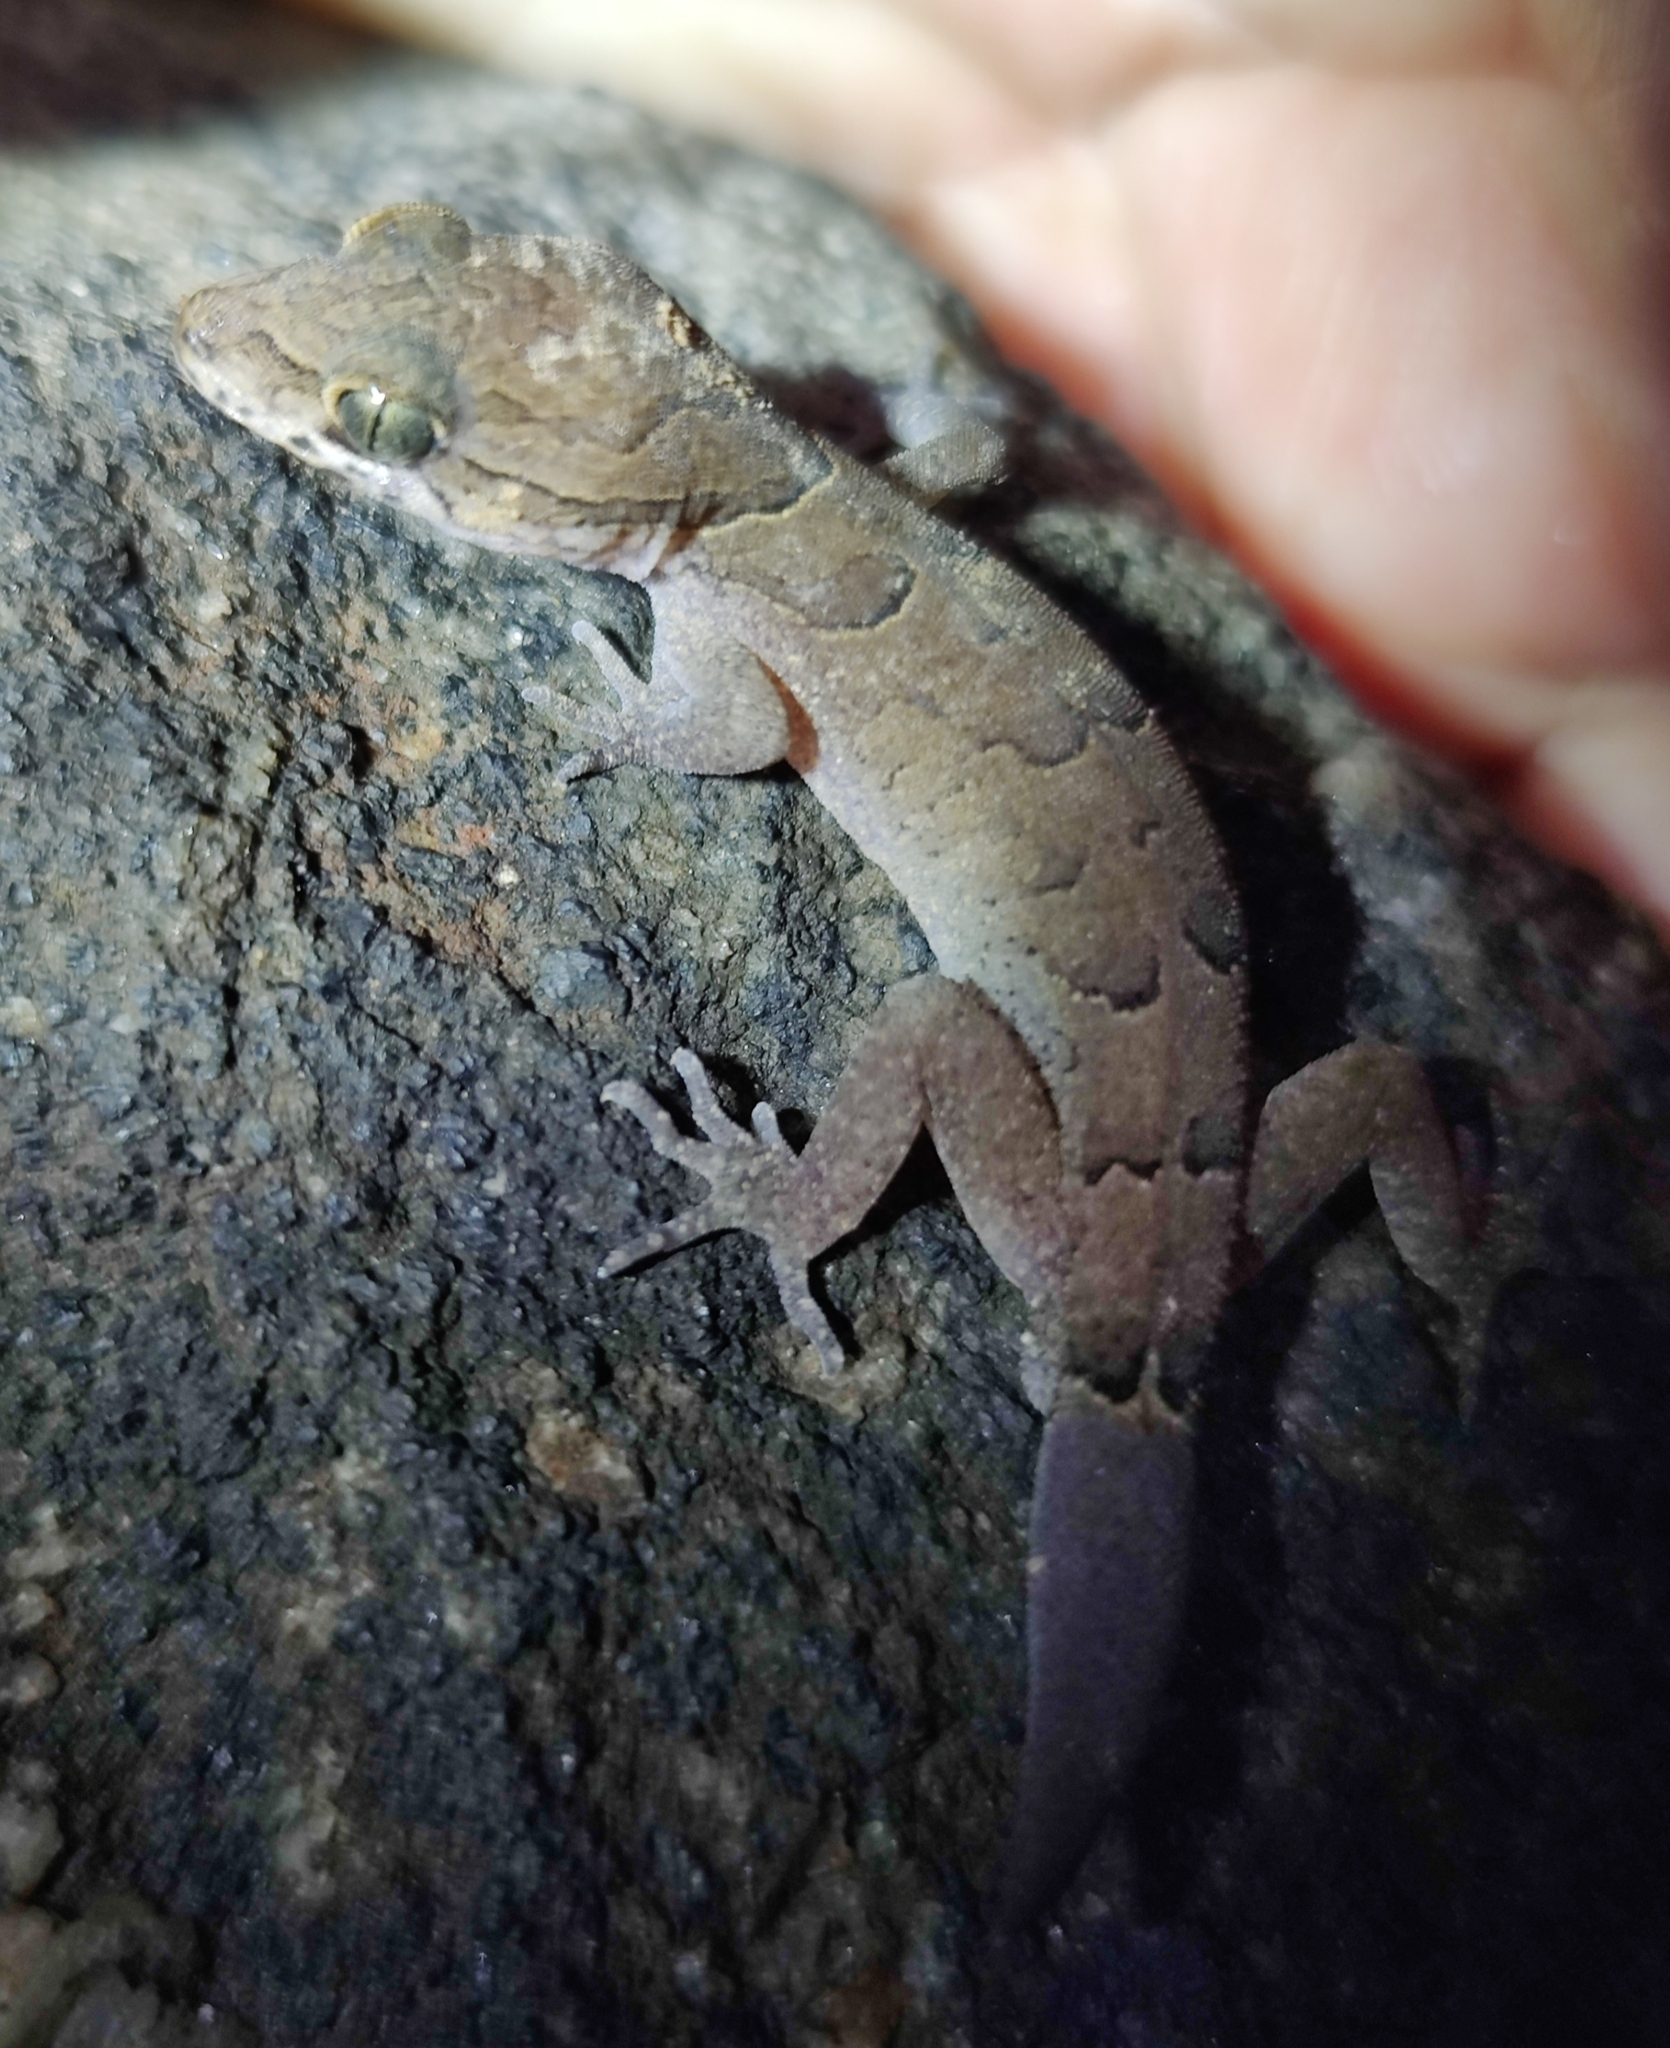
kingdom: Animalia
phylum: Chordata
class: Squamata
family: Gekkonidae
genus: Cyrtodactylus
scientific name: Cyrtodactylus nebulosus
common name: Clouded indian gecko
